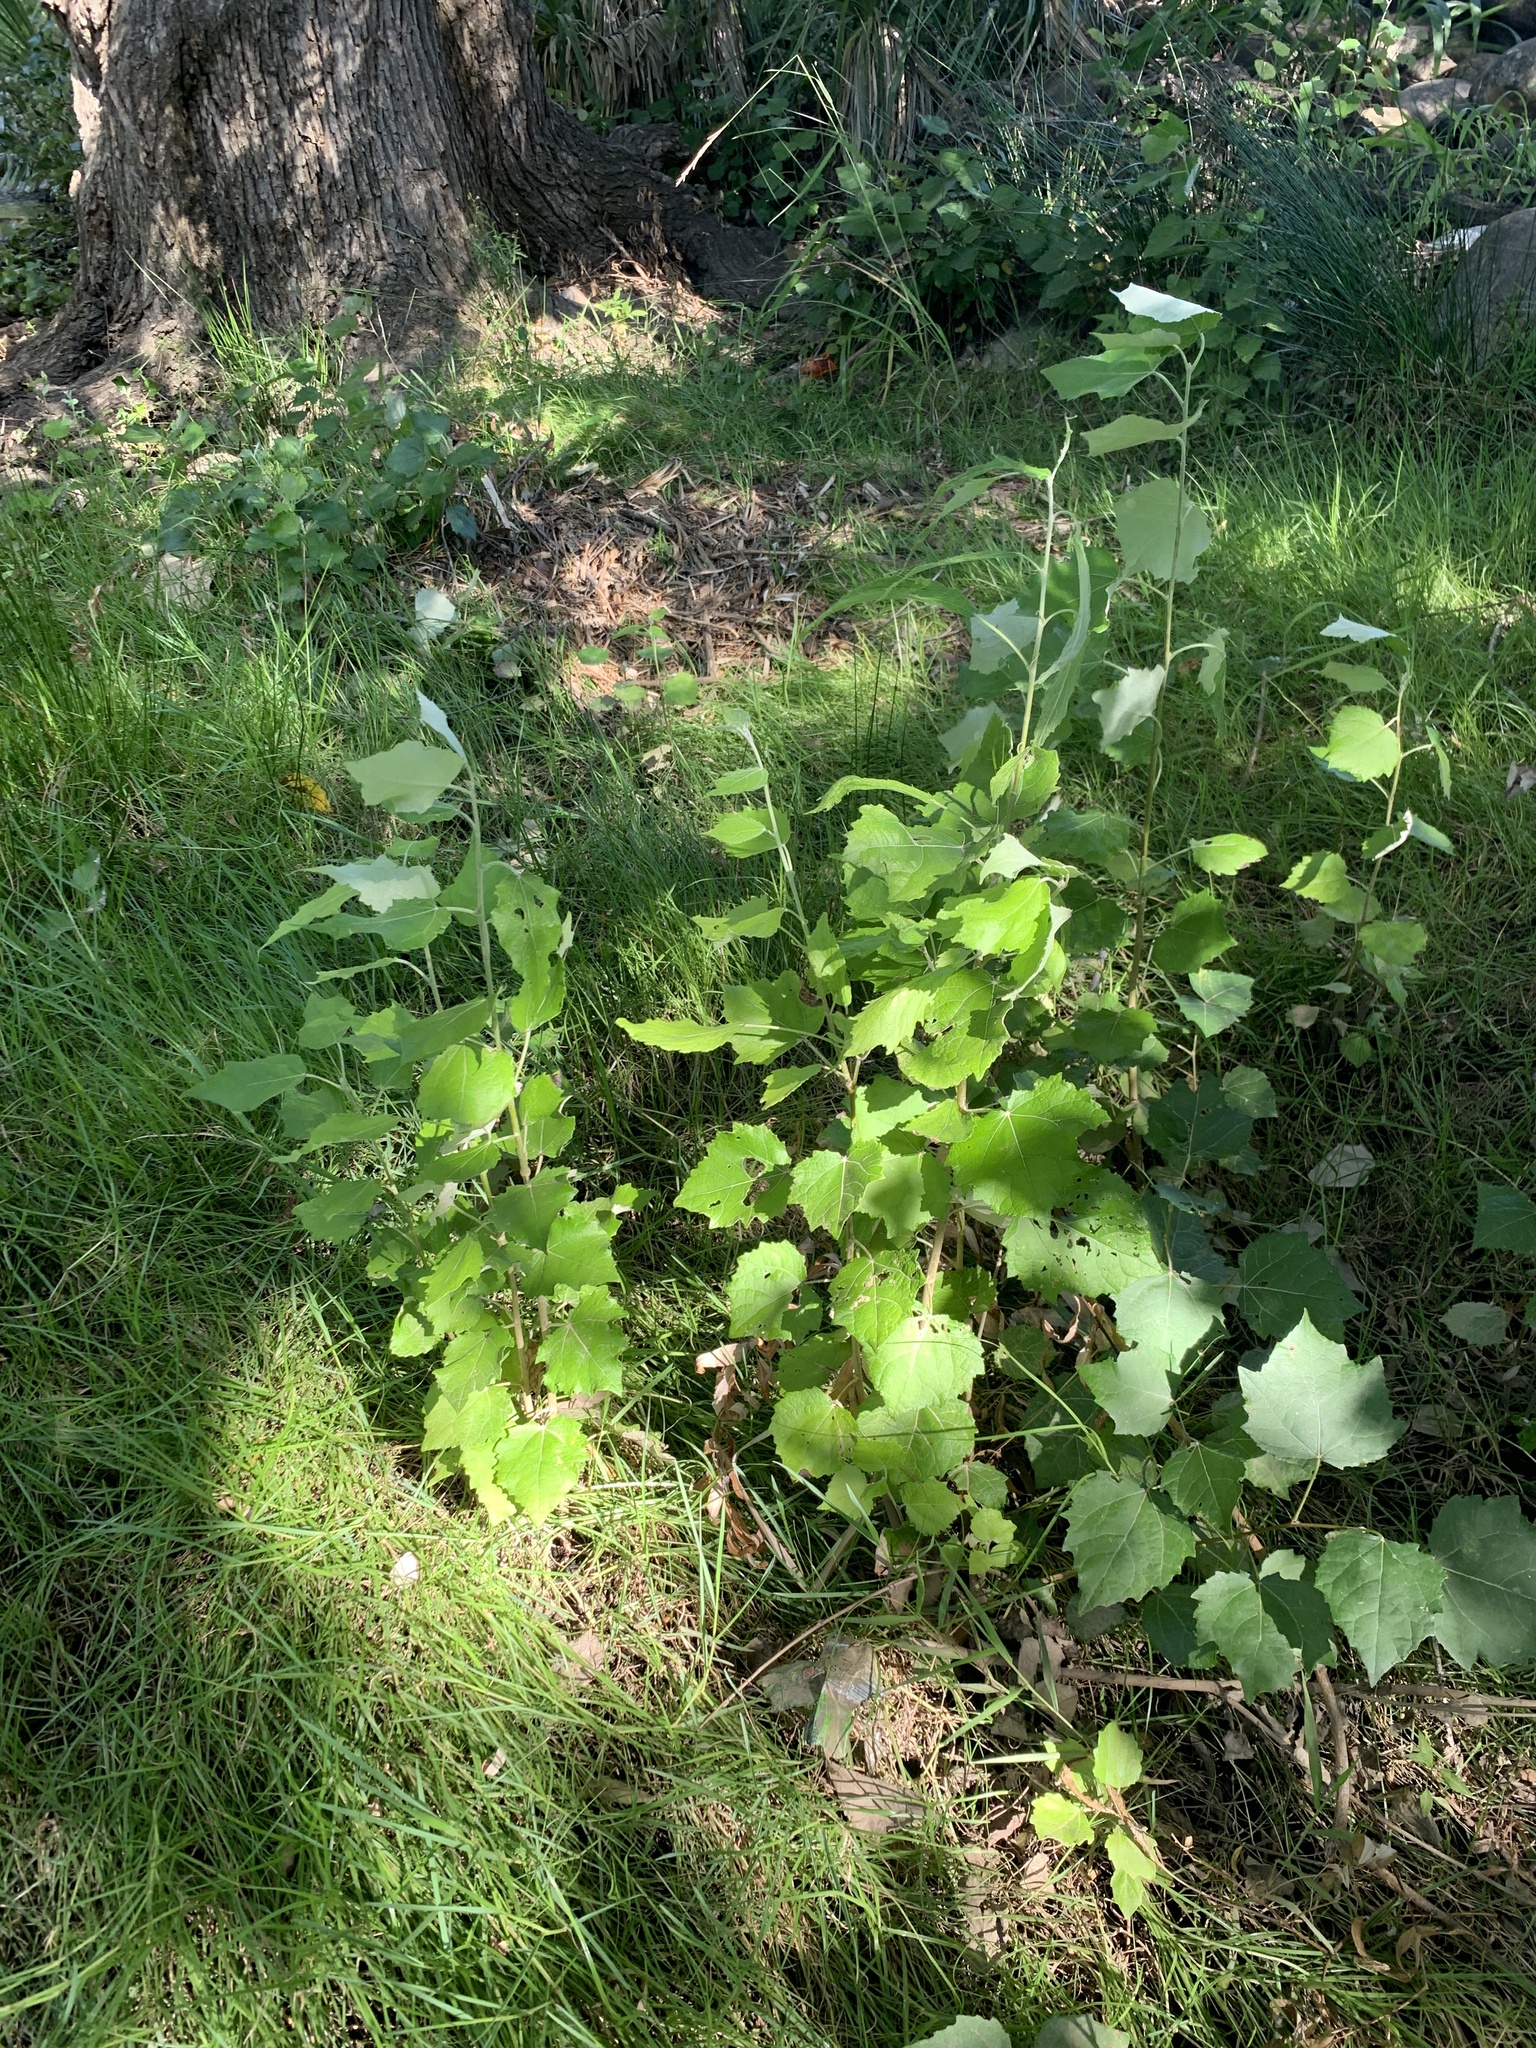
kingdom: Plantae
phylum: Tracheophyta
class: Magnoliopsida
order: Malpighiales
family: Salicaceae
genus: Populus
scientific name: Populus canescens
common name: Gray poplar
